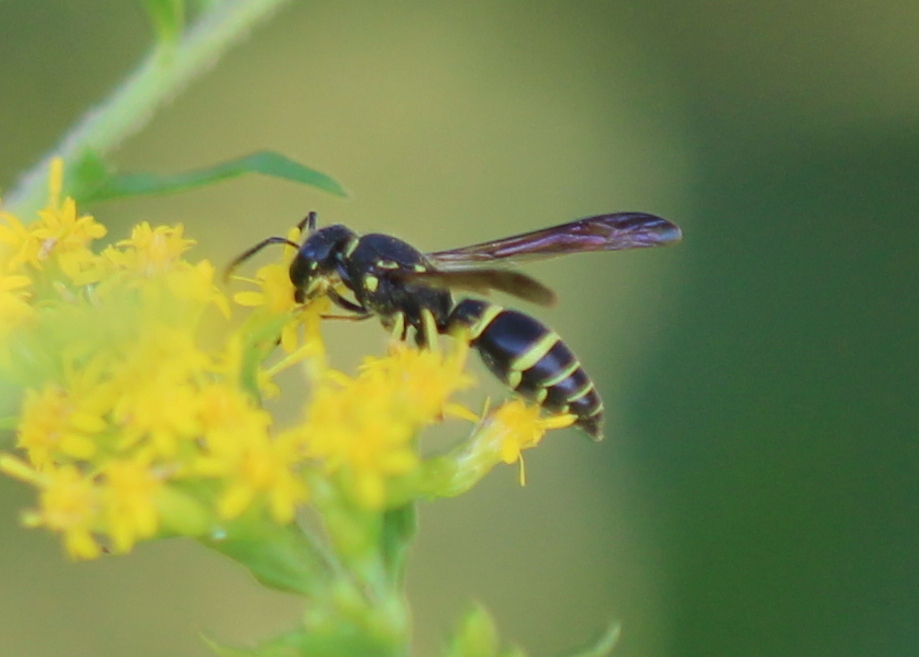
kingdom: Animalia
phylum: Arthropoda
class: Insecta
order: Hymenoptera
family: Vespidae
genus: Ancistrocerus
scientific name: Ancistrocerus adiabatus
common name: Bramble mason wasp
